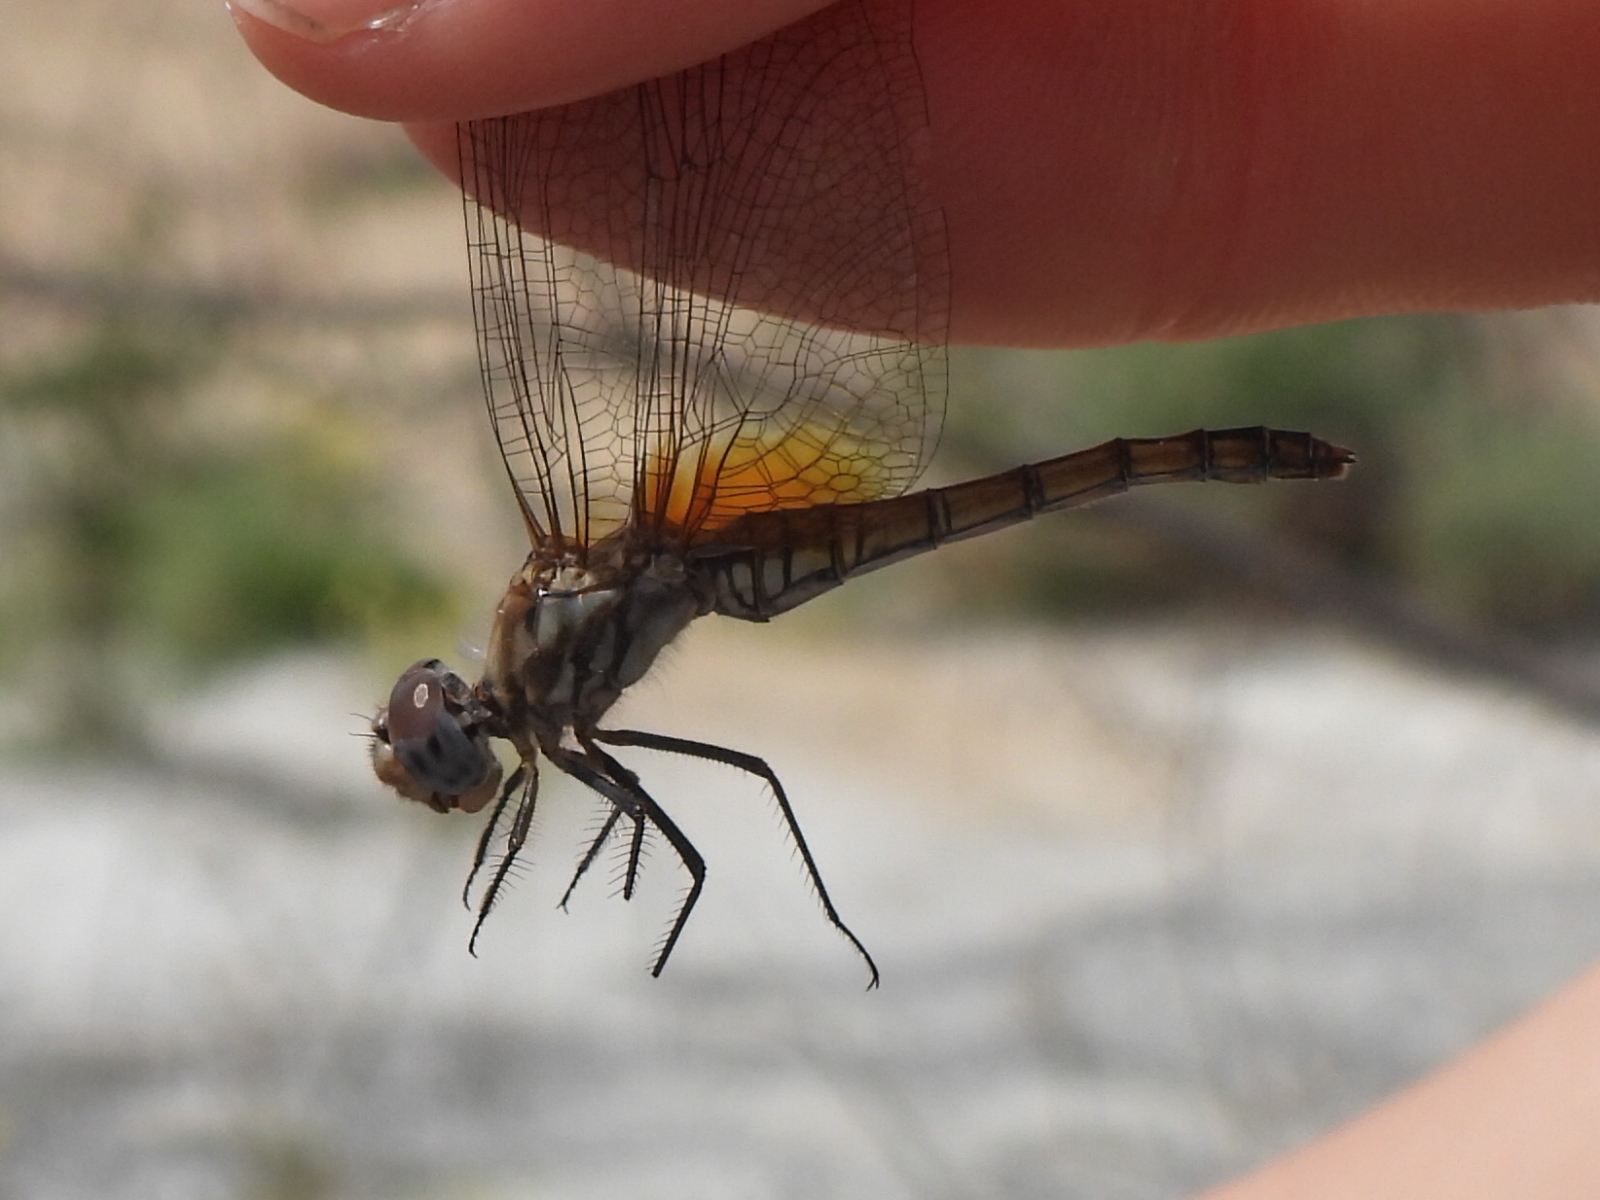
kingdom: Animalia
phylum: Arthropoda
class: Insecta
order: Odonata
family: Libellulidae
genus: Trithemis
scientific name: Trithemis annulata
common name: Violet dropwing
